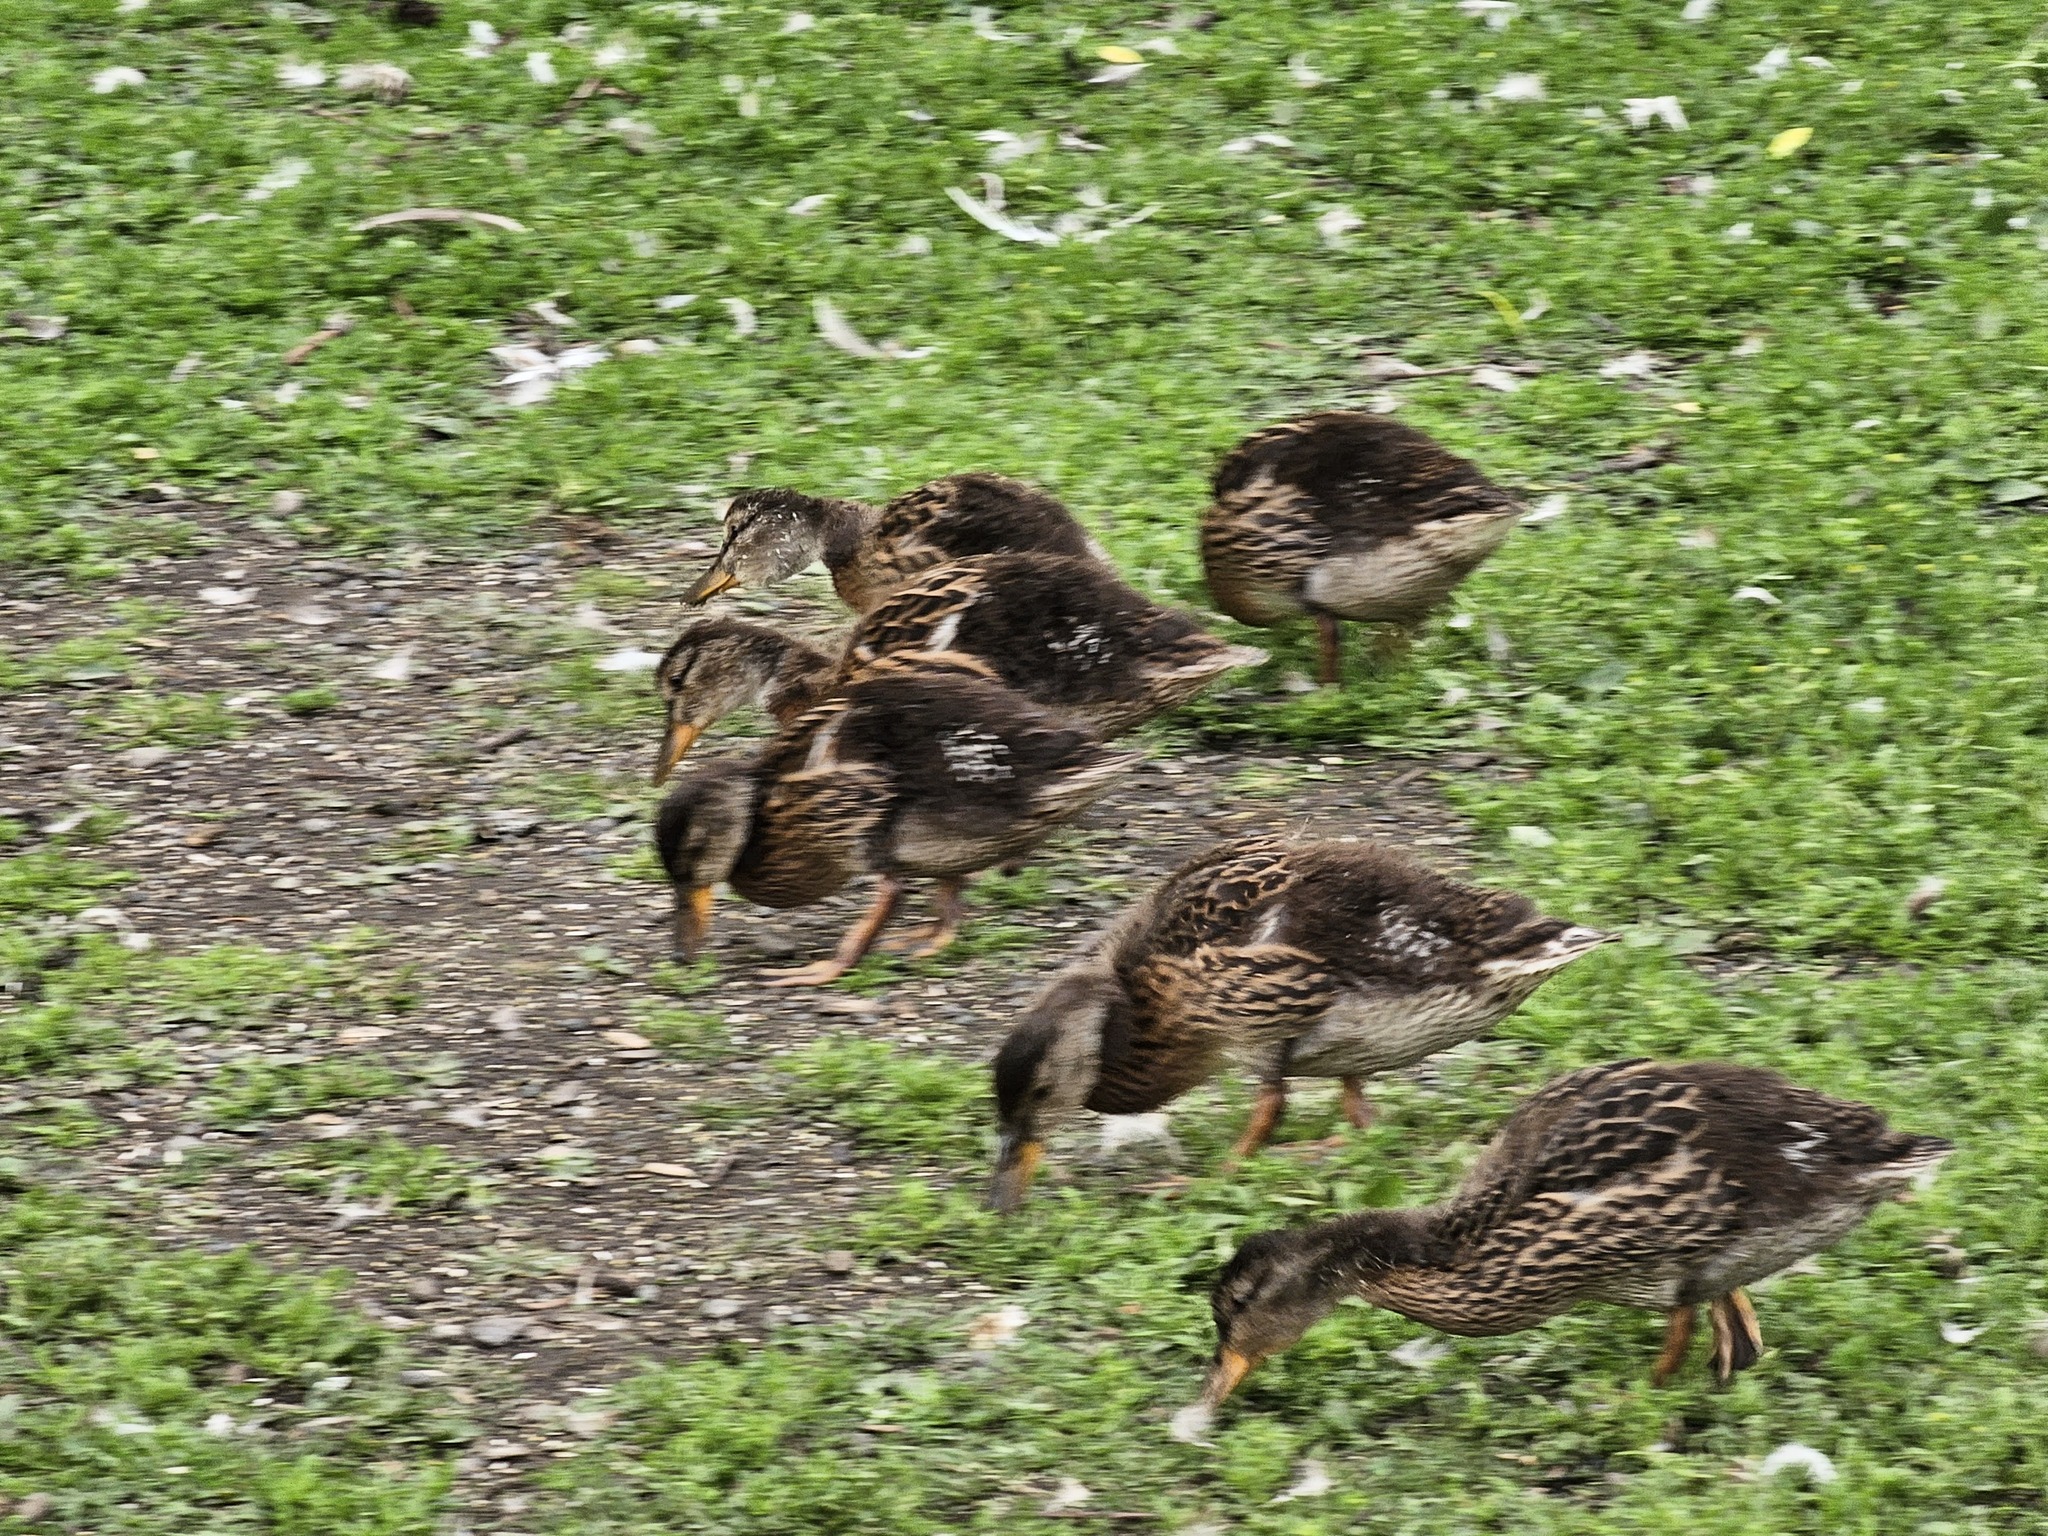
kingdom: Animalia
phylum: Chordata
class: Aves
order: Anseriformes
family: Anatidae
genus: Anas
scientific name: Anas platyrhynchos
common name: Mallard
